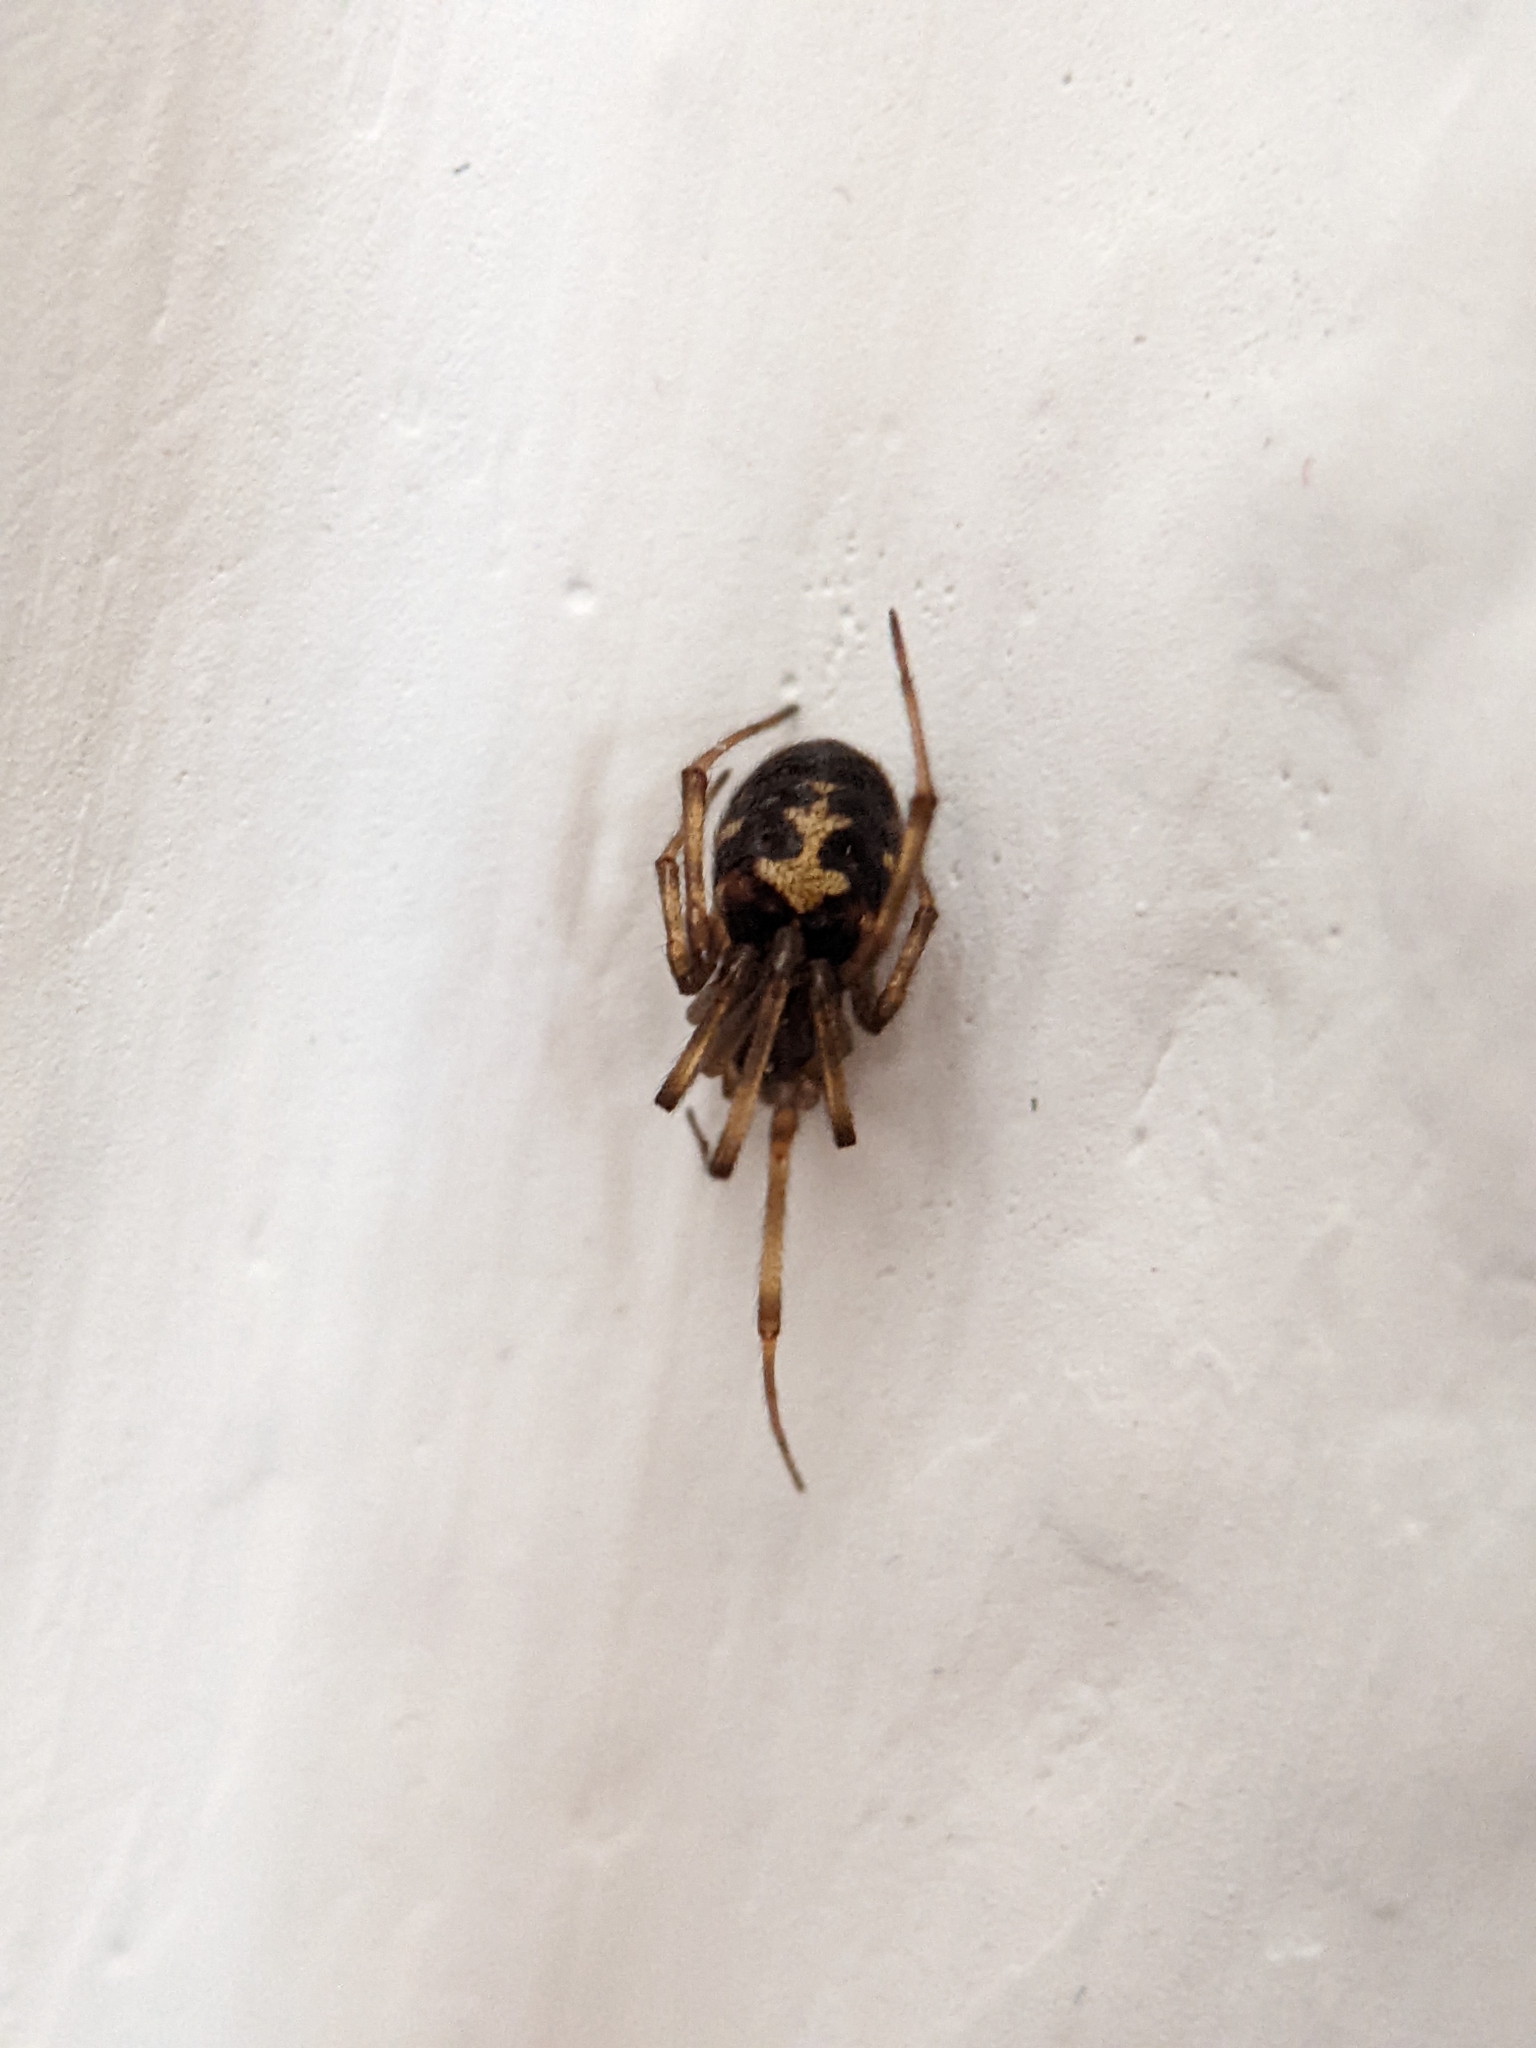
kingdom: Animalia
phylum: Arthropoda
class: Arachnida
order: Araneae
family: Theridiidae
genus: Steatoda
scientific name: Steatoda triangulosa
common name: Triangulate bud spider
